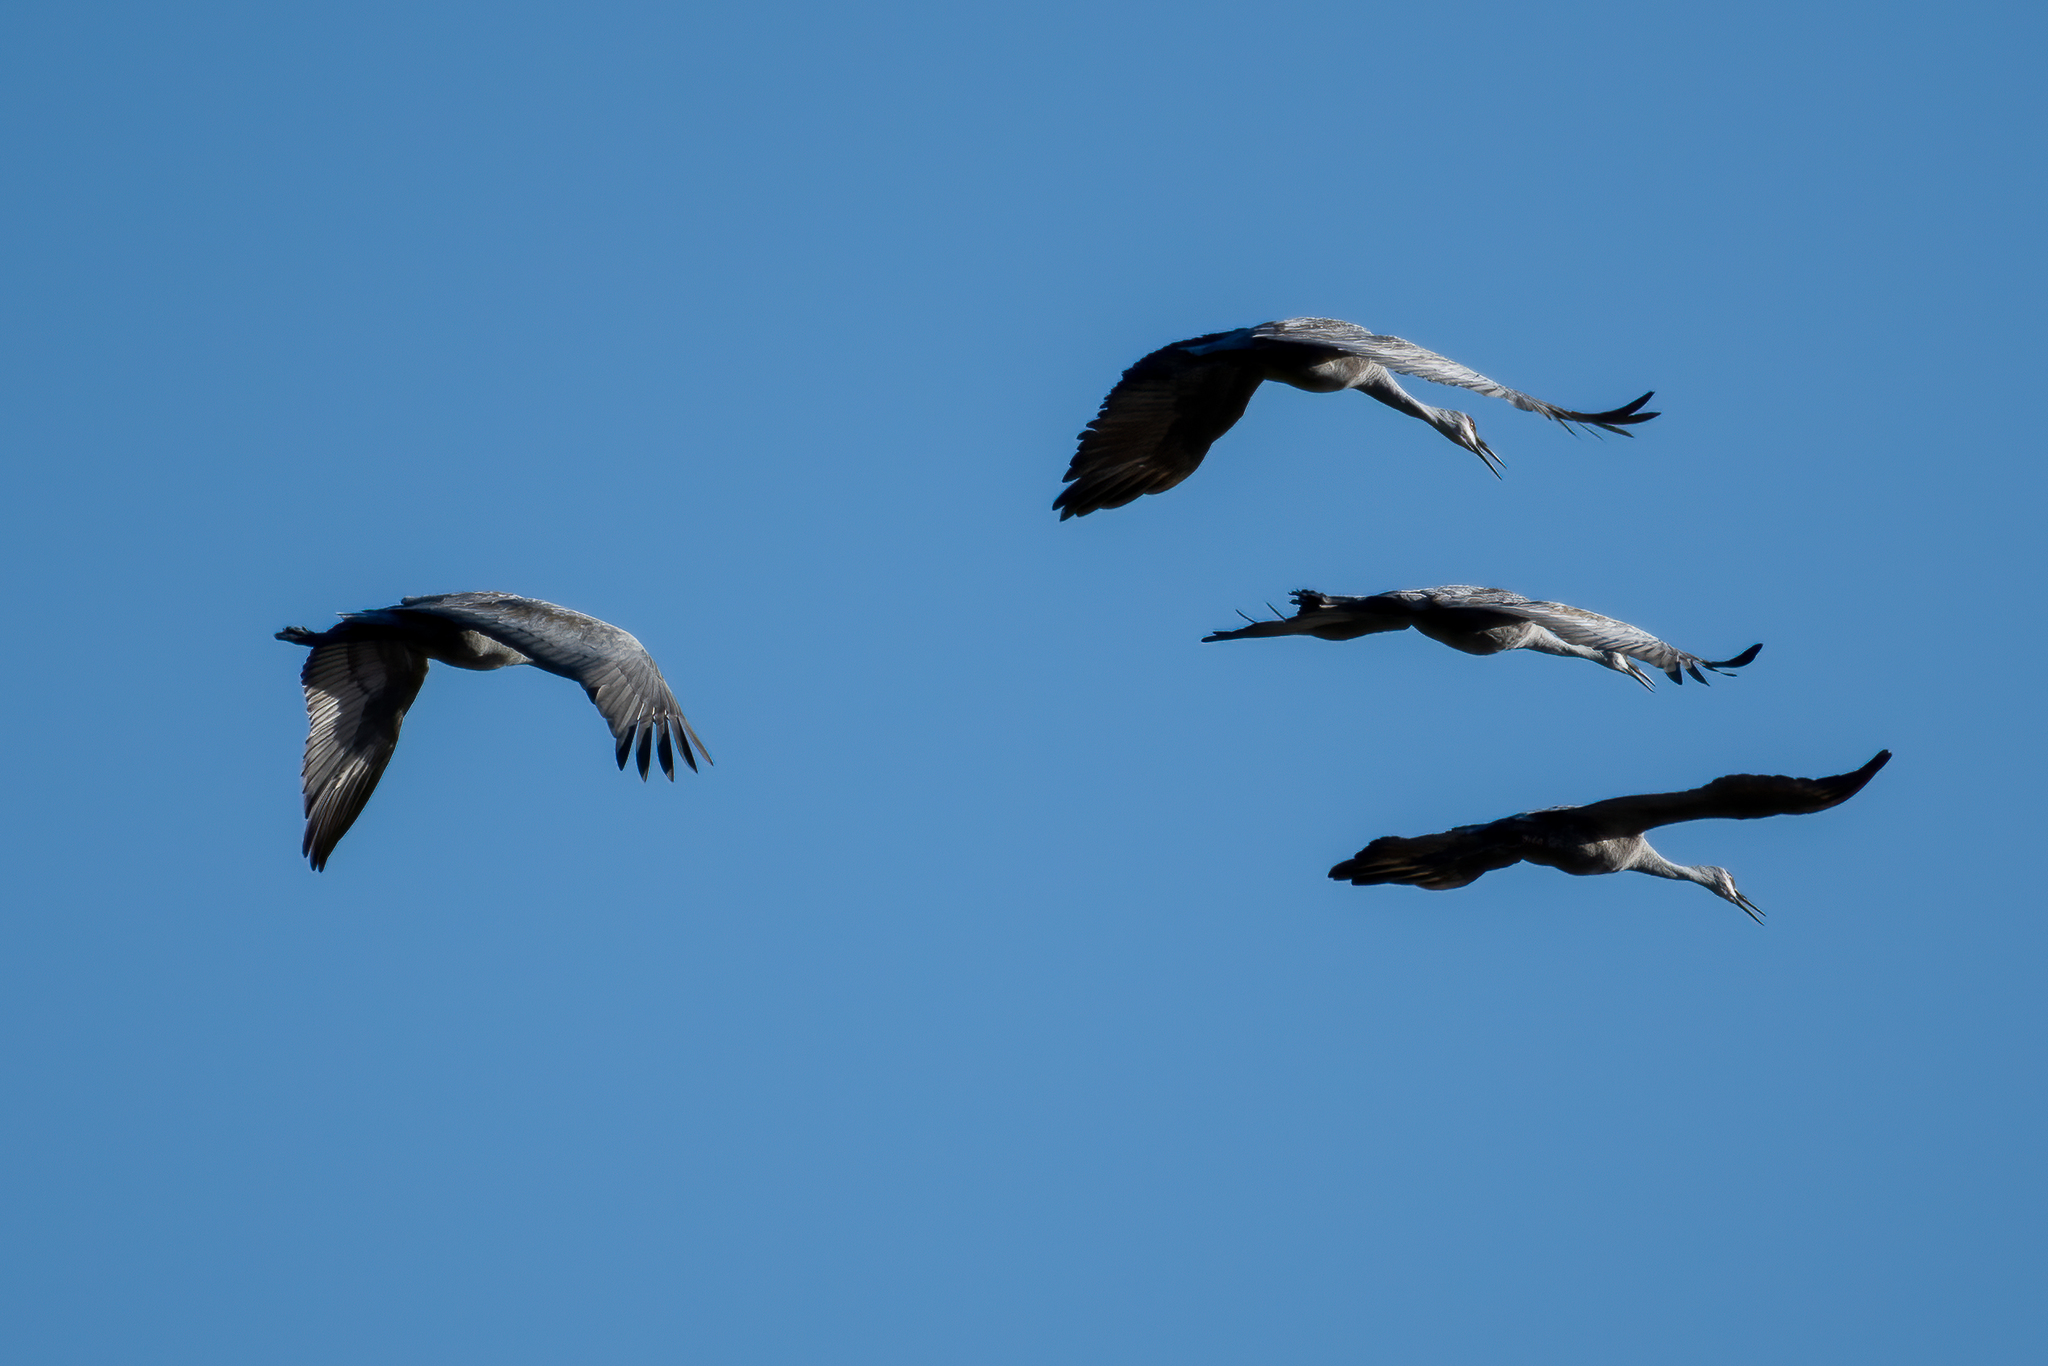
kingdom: Animalia
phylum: Chordata
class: Aves
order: Gruiformes
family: Gruidae
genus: Grus
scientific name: Grus canadensis
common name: Sandhill crane
